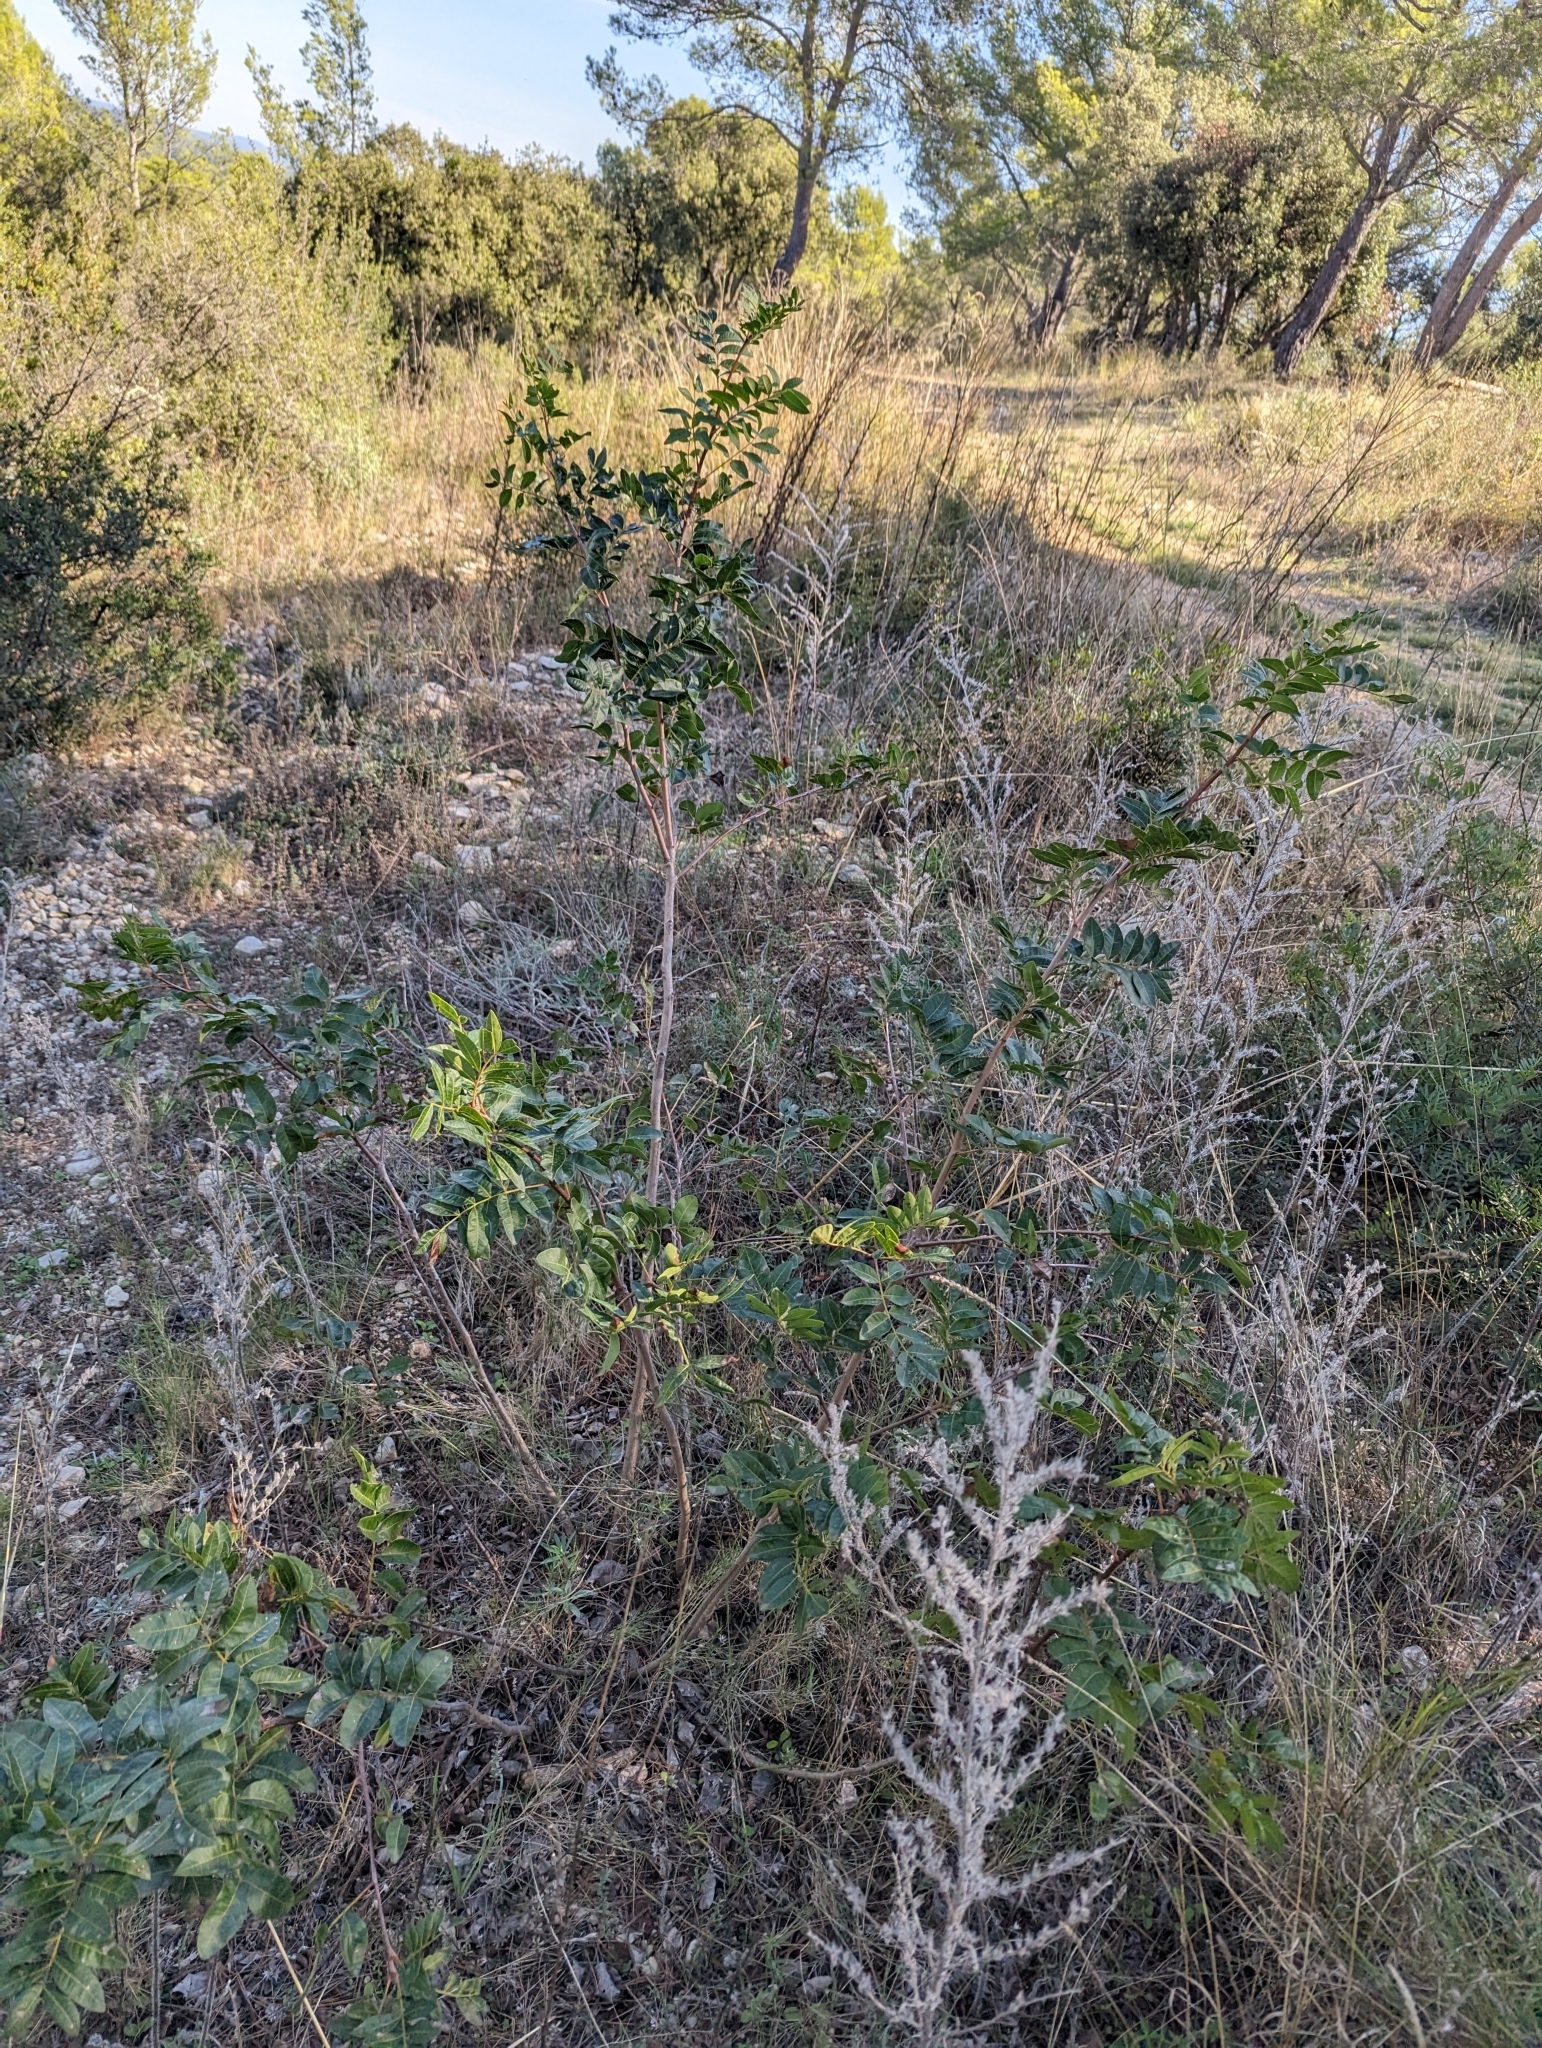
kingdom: Plantae
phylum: Tracheophyta
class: Magnoliopsida
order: Sapindales
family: Anacardiaceae
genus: Pistacia
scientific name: Pistacia saportae
